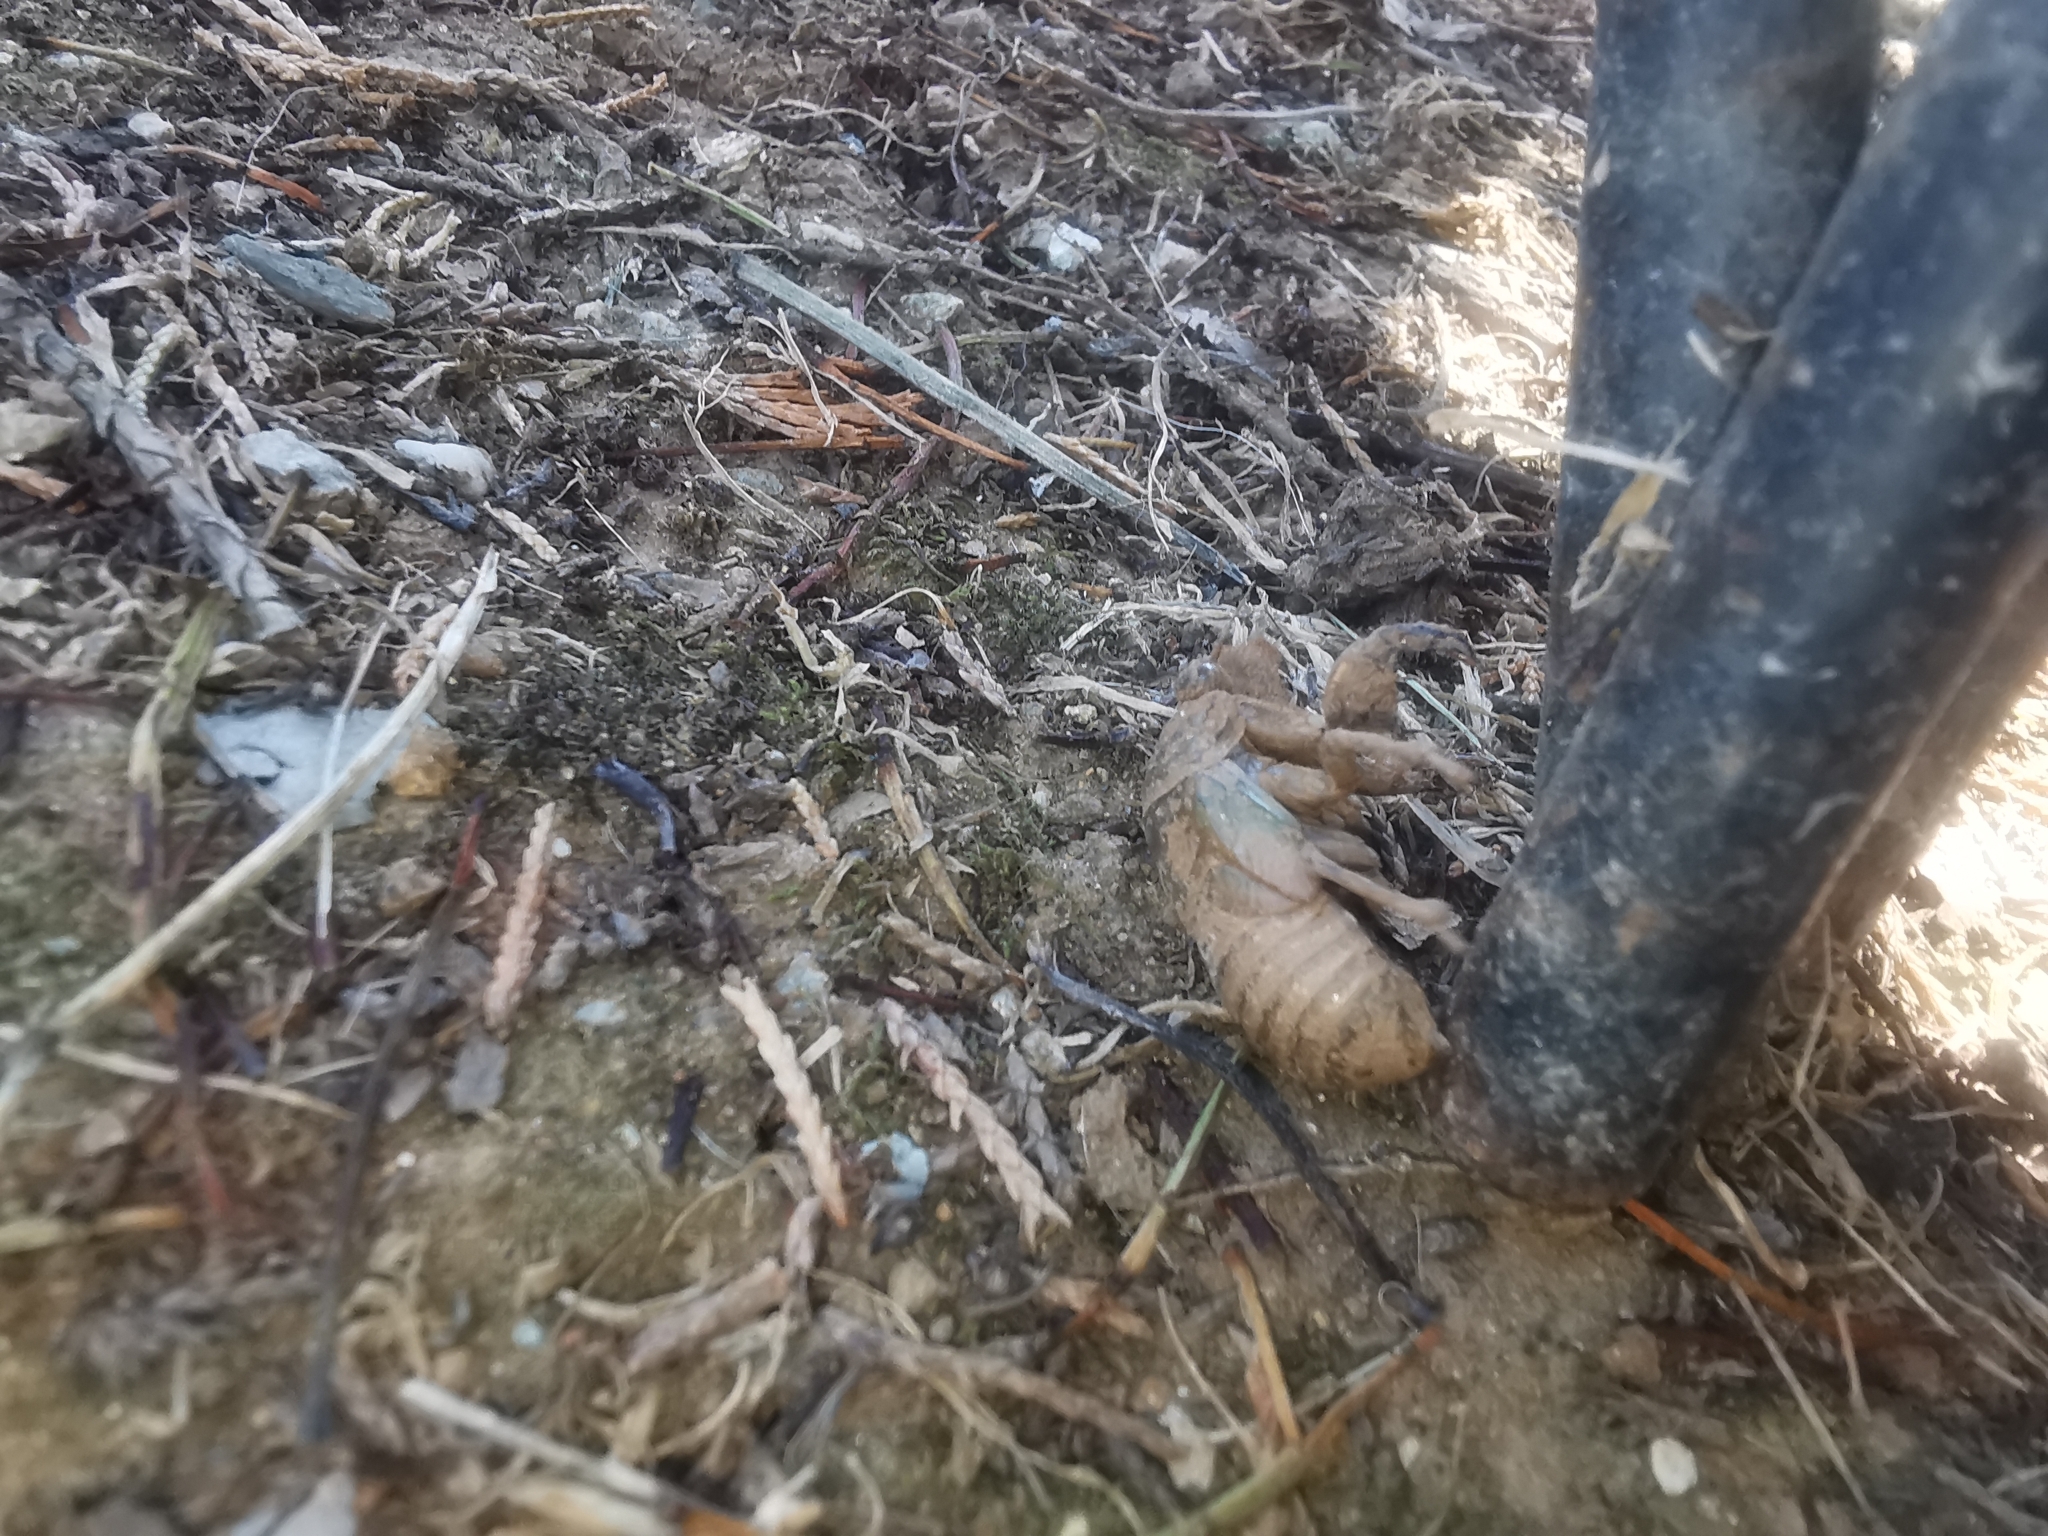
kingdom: Animalia
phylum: Arthropoda
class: Insecta
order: Hemiptera
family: Cicadidae
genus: Lyristes
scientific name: Lyristes plebejus
